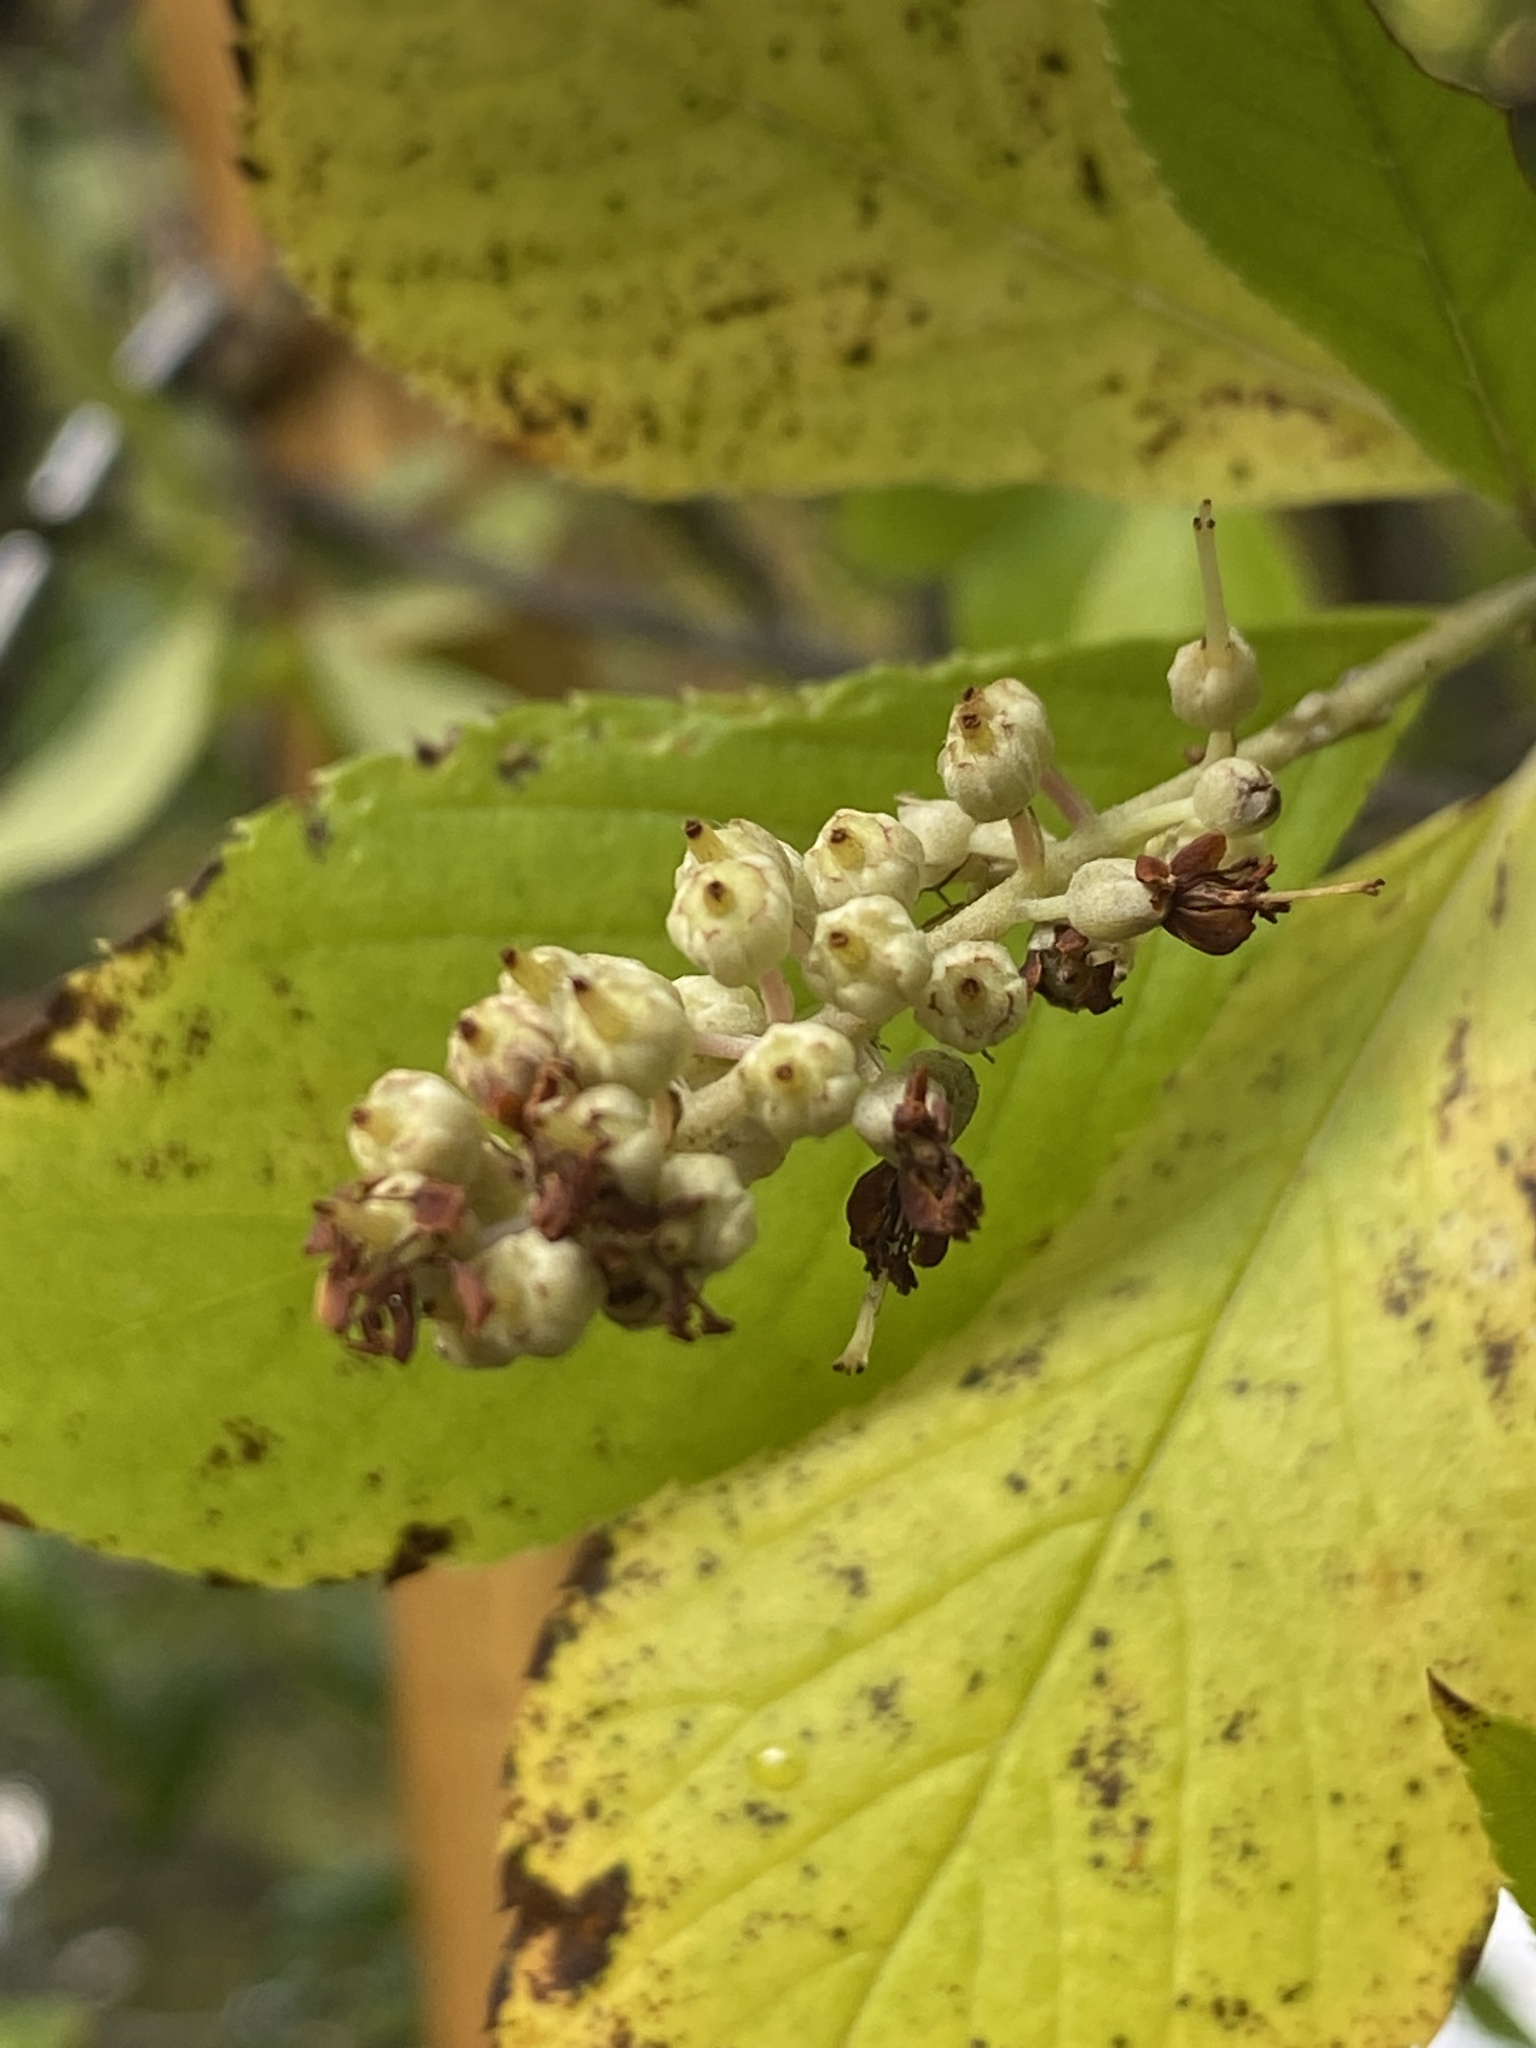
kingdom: Plantae
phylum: Tracheophyta
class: Magnoliopsida
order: Ericales
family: Clethraceae
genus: Clethra
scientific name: Clethra alnifolia
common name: Sweet pepperbush
